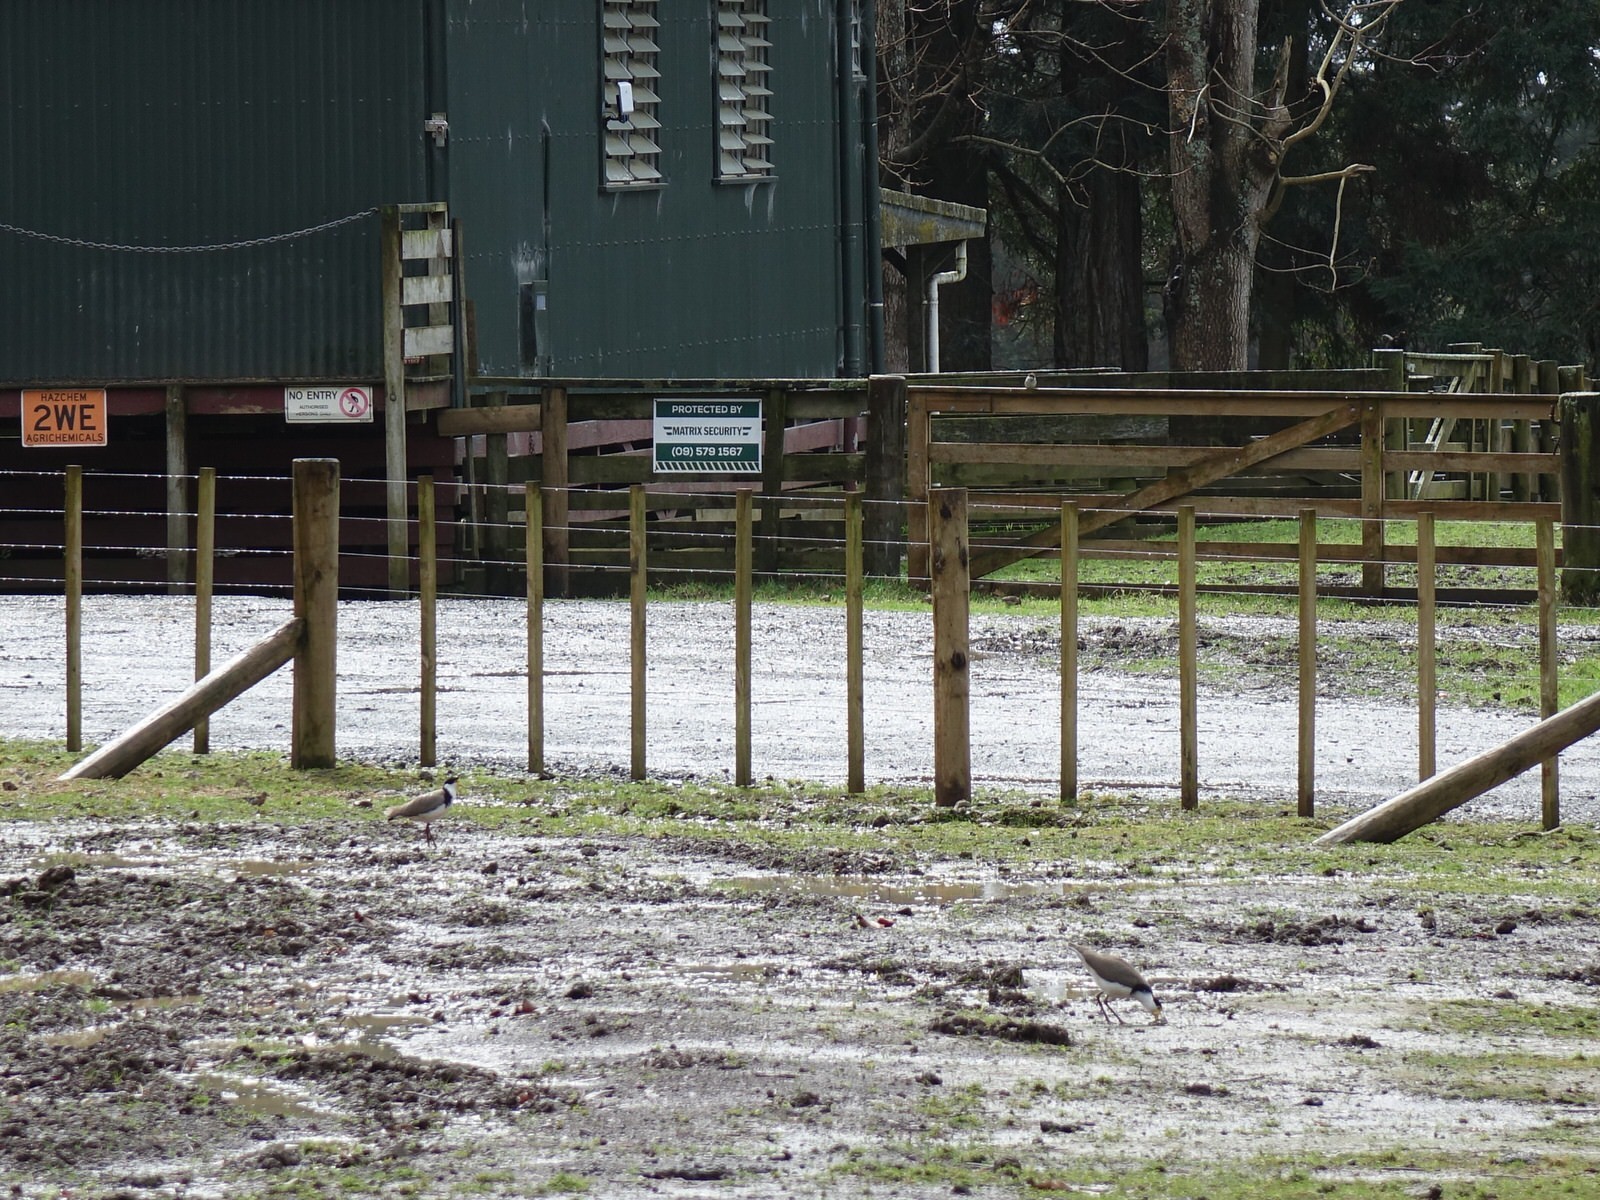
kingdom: Animalia
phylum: Chordata
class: Aves
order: Charadriiformes
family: Charadriidae
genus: Vanellus
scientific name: Vanellus miles
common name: Masked lapwing
